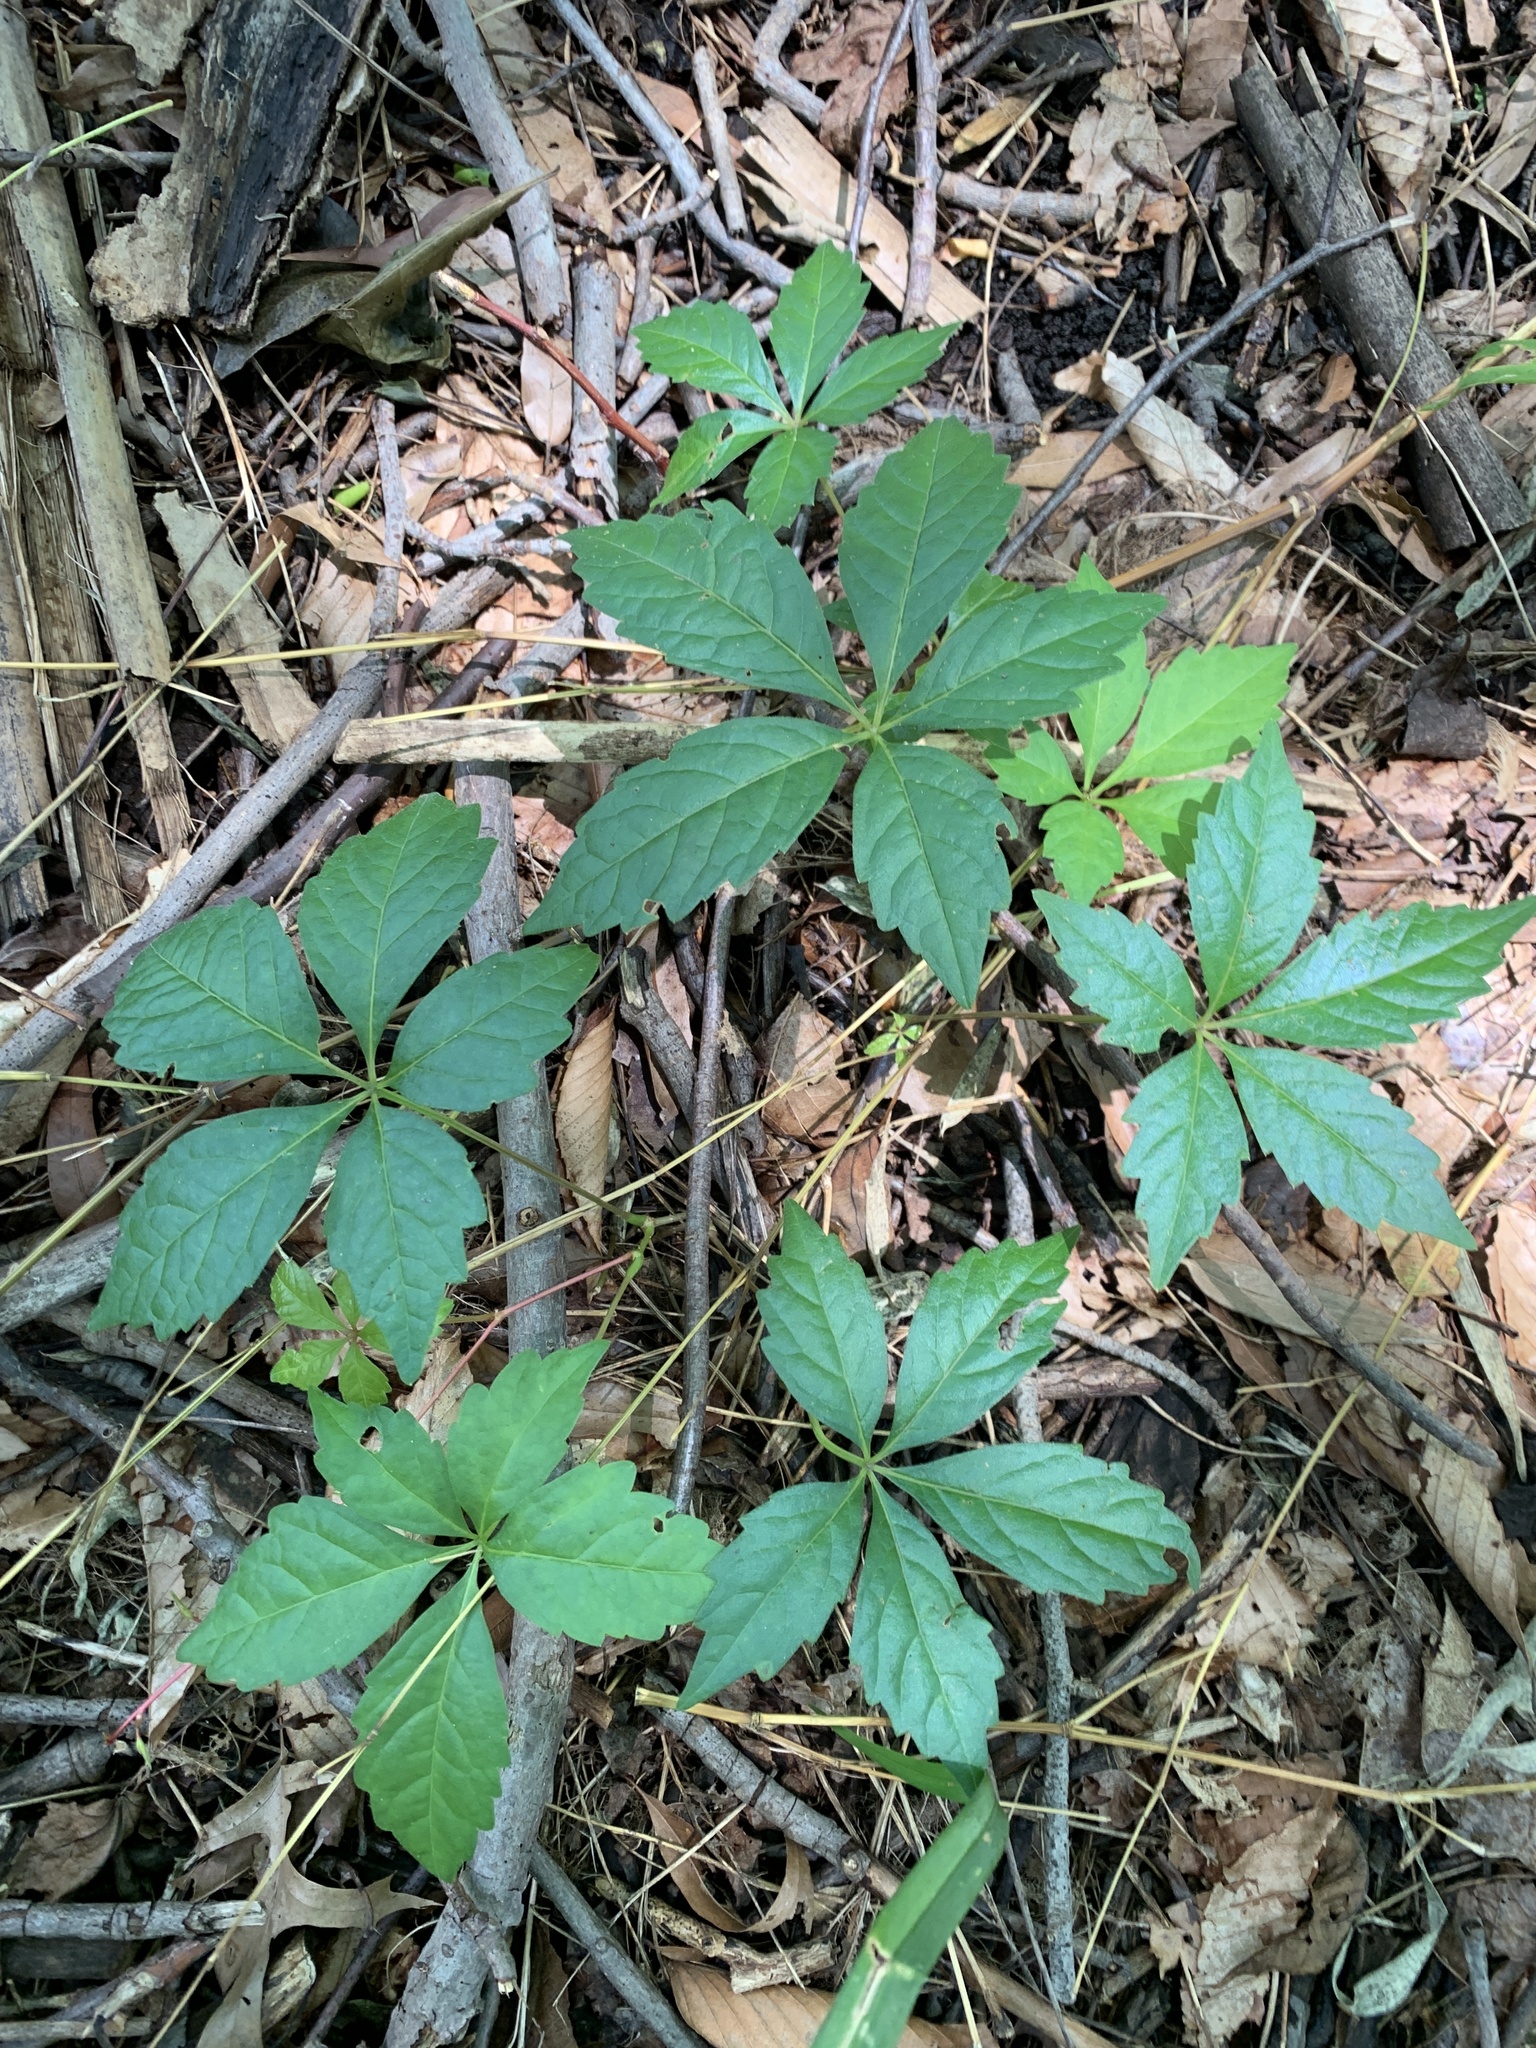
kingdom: Plantae
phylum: Tracheophyta
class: Magnoliopsida
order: Vitales
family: Vitaceae
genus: Parthenocissus
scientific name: Parthenocissus quinquefolia
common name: Virginia-creeper
